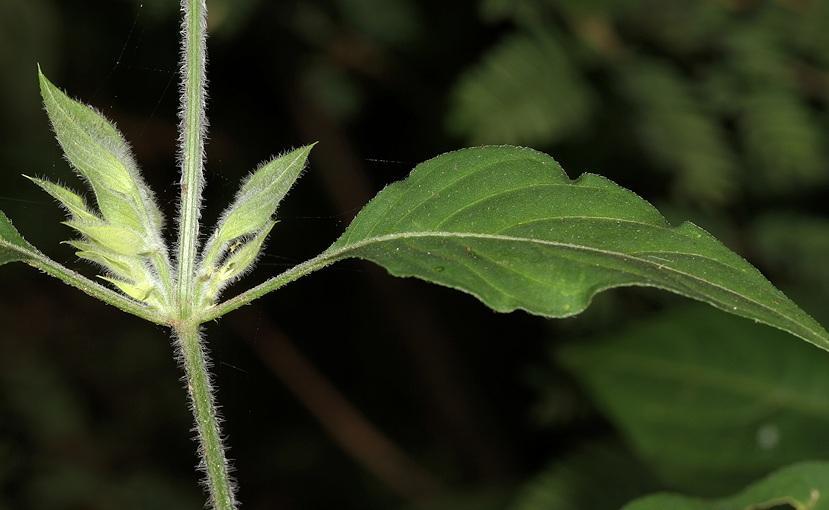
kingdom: Plantae
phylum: Tracheophyta
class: Magnoliopsida
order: Lamiales
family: Acanthaceae
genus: Dicliptera
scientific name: Dicliptera heterostegia
